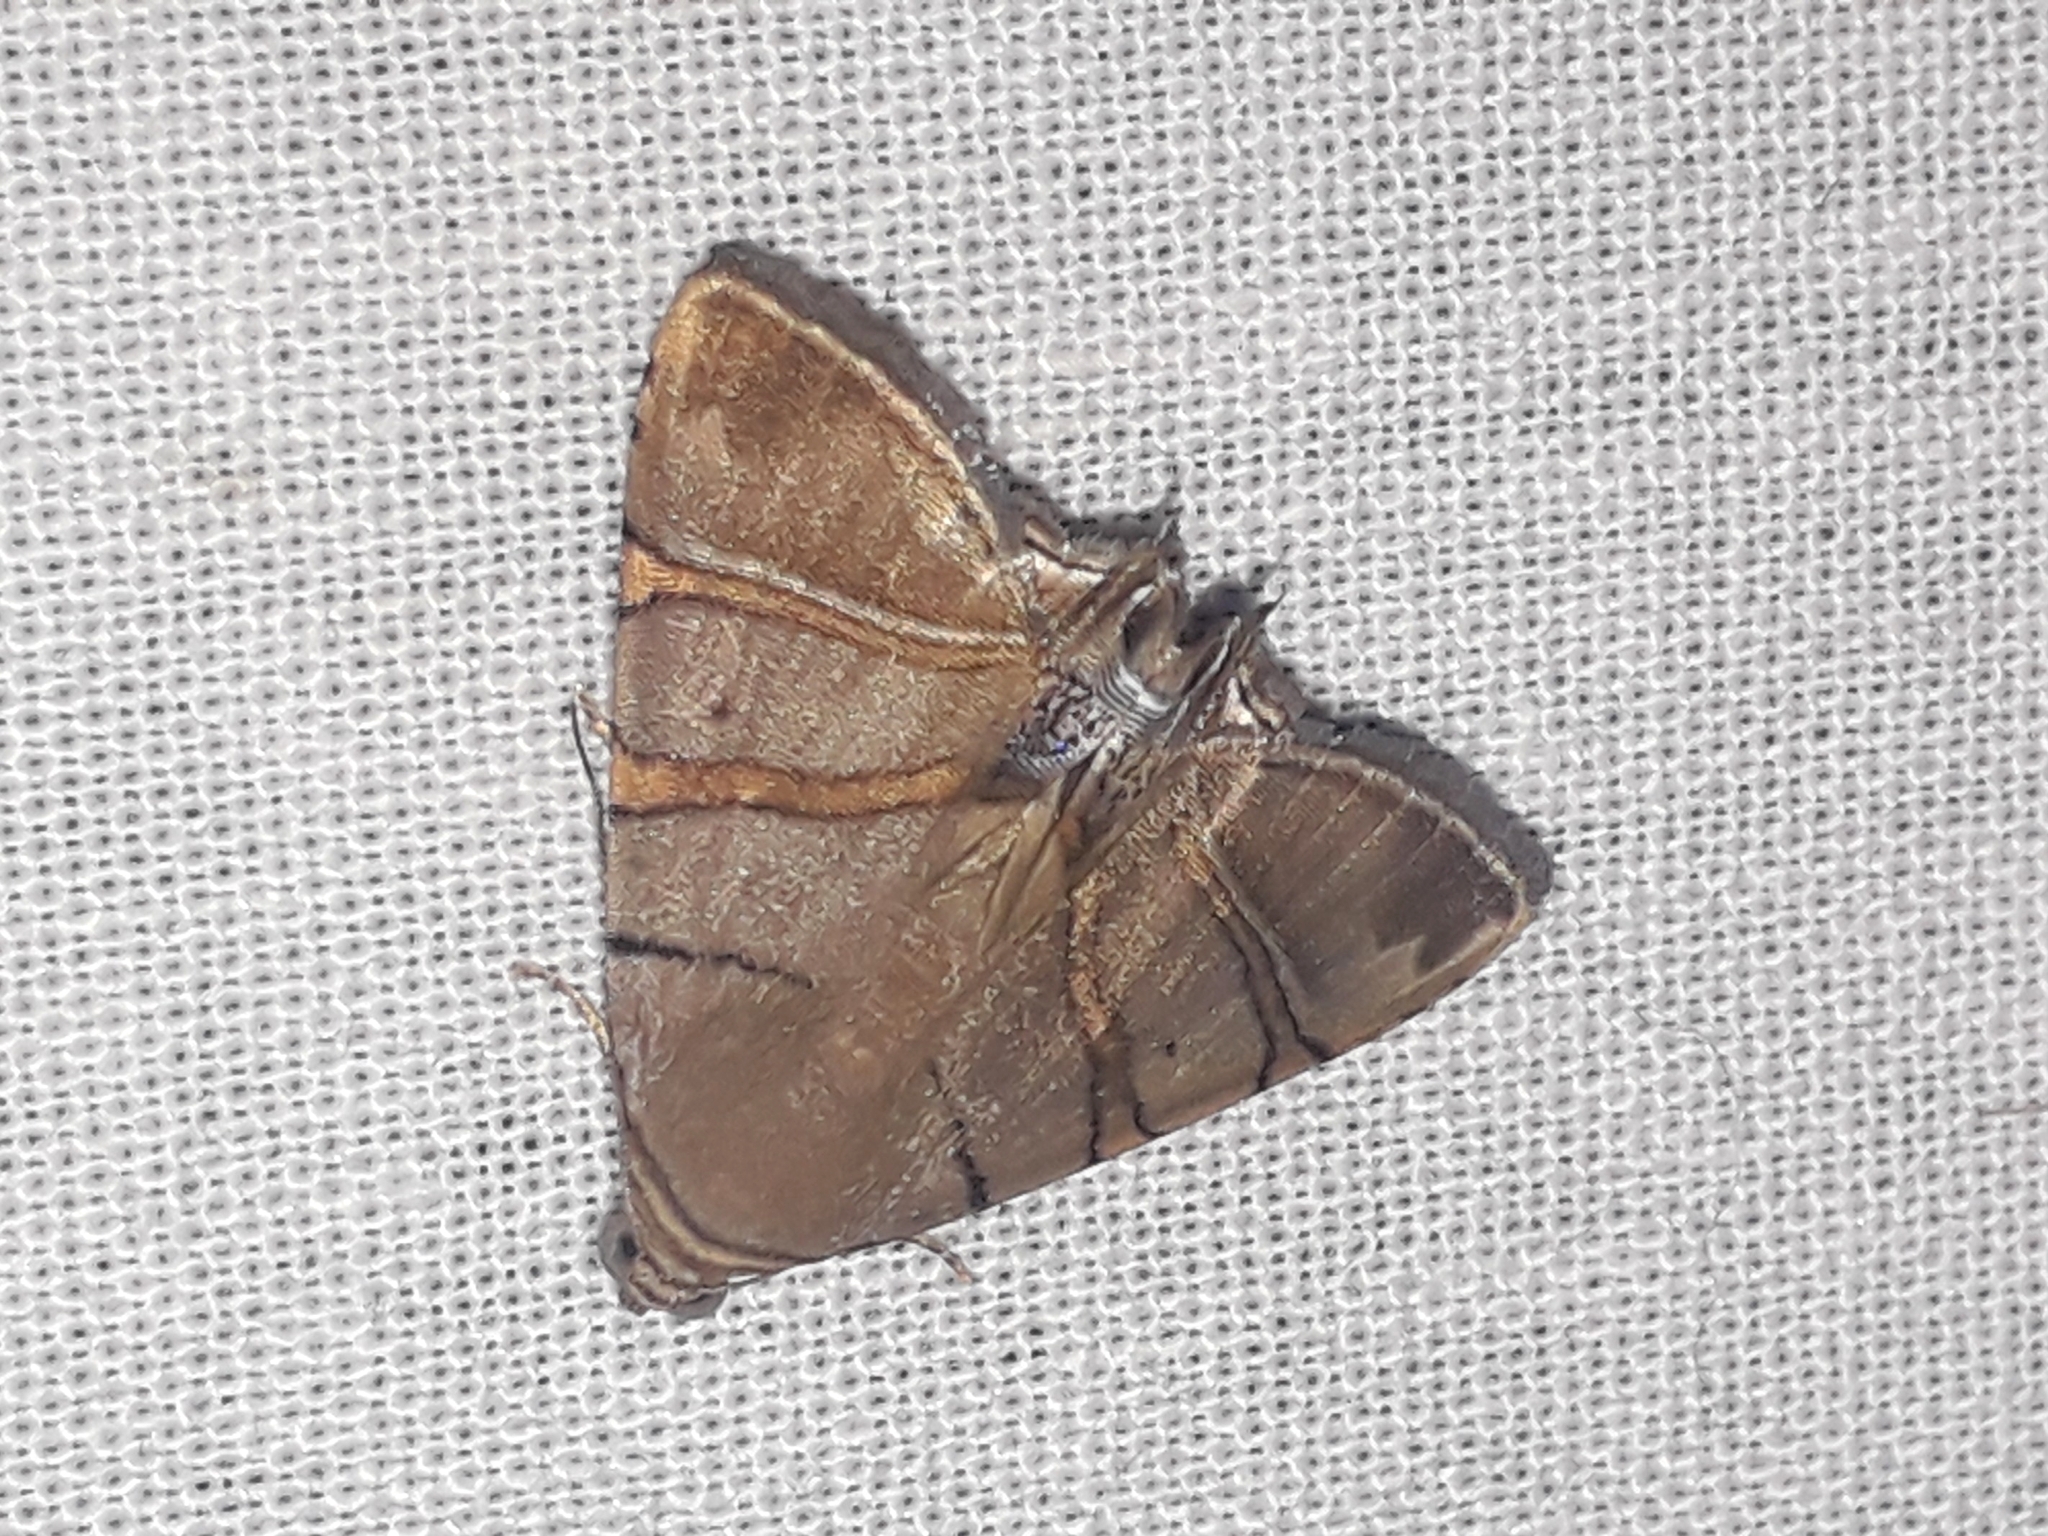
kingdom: Animalia
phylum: Arthropoda
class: Insecta
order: Lepidoptera
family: Erebidae
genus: Eulepidotis
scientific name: Eulepidotis addens
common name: Eulepidotis moth
